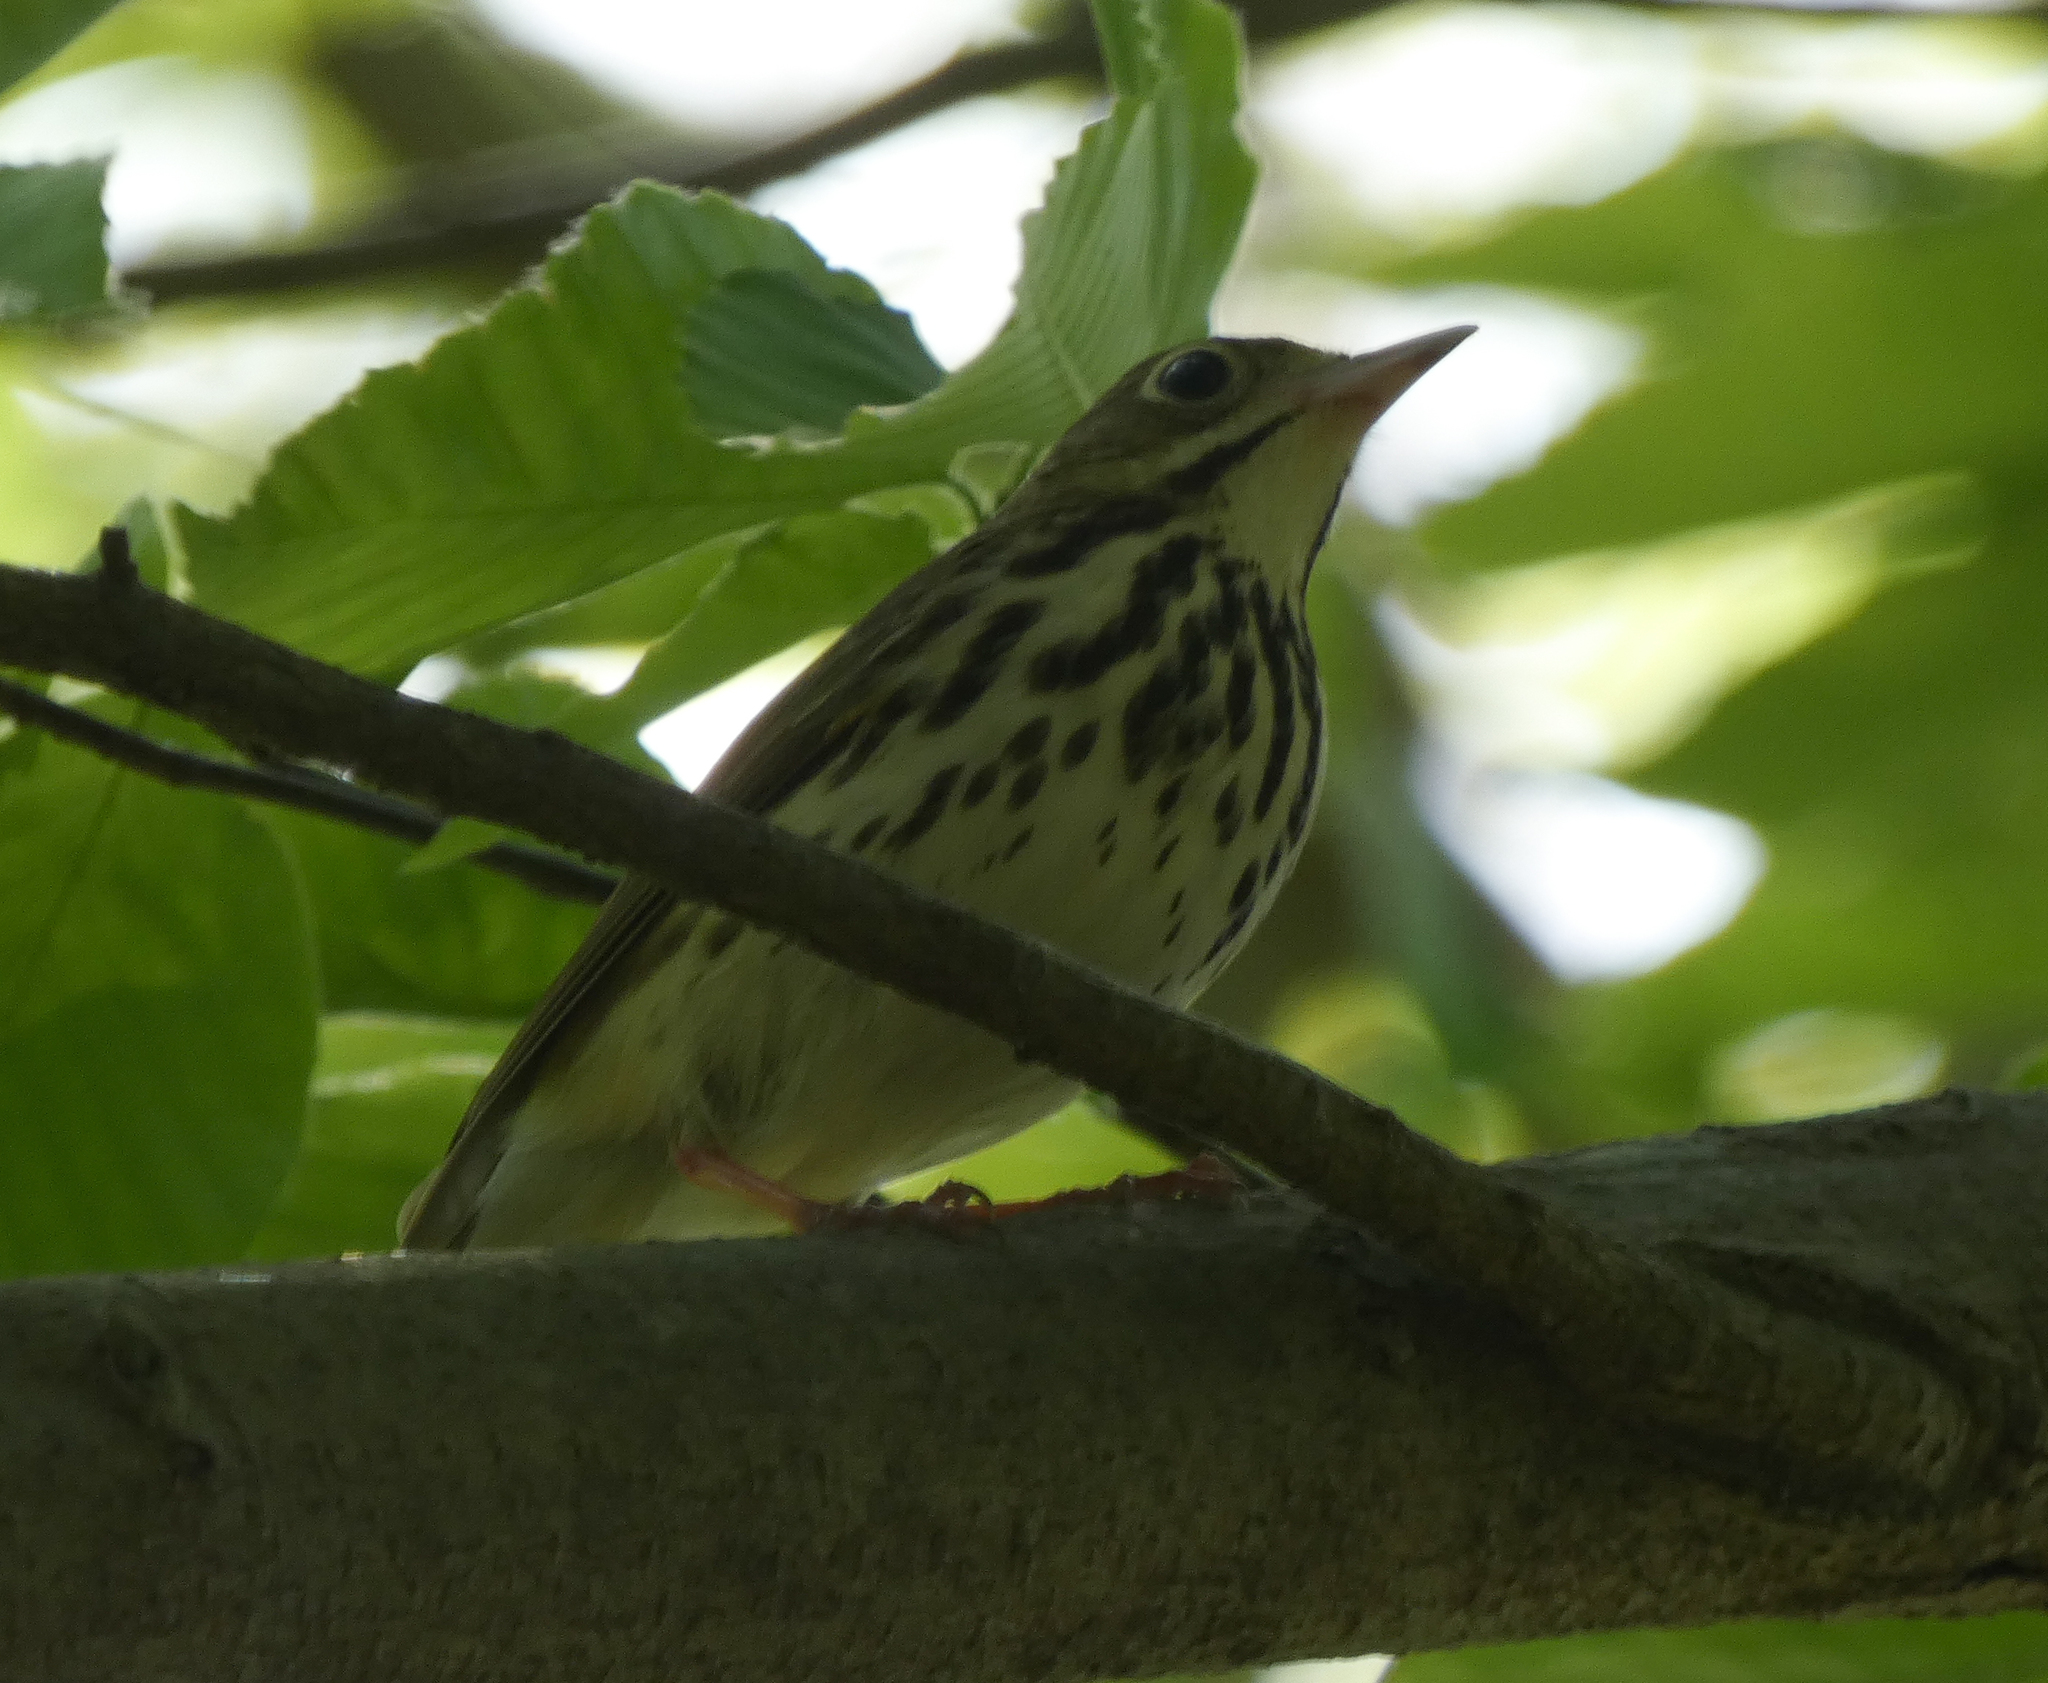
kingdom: Animalia
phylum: Chordata
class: Aves
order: Passeriformes
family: Parulidae
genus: Seiurus
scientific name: Seiurus aurocapilla
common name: Ovenbird
